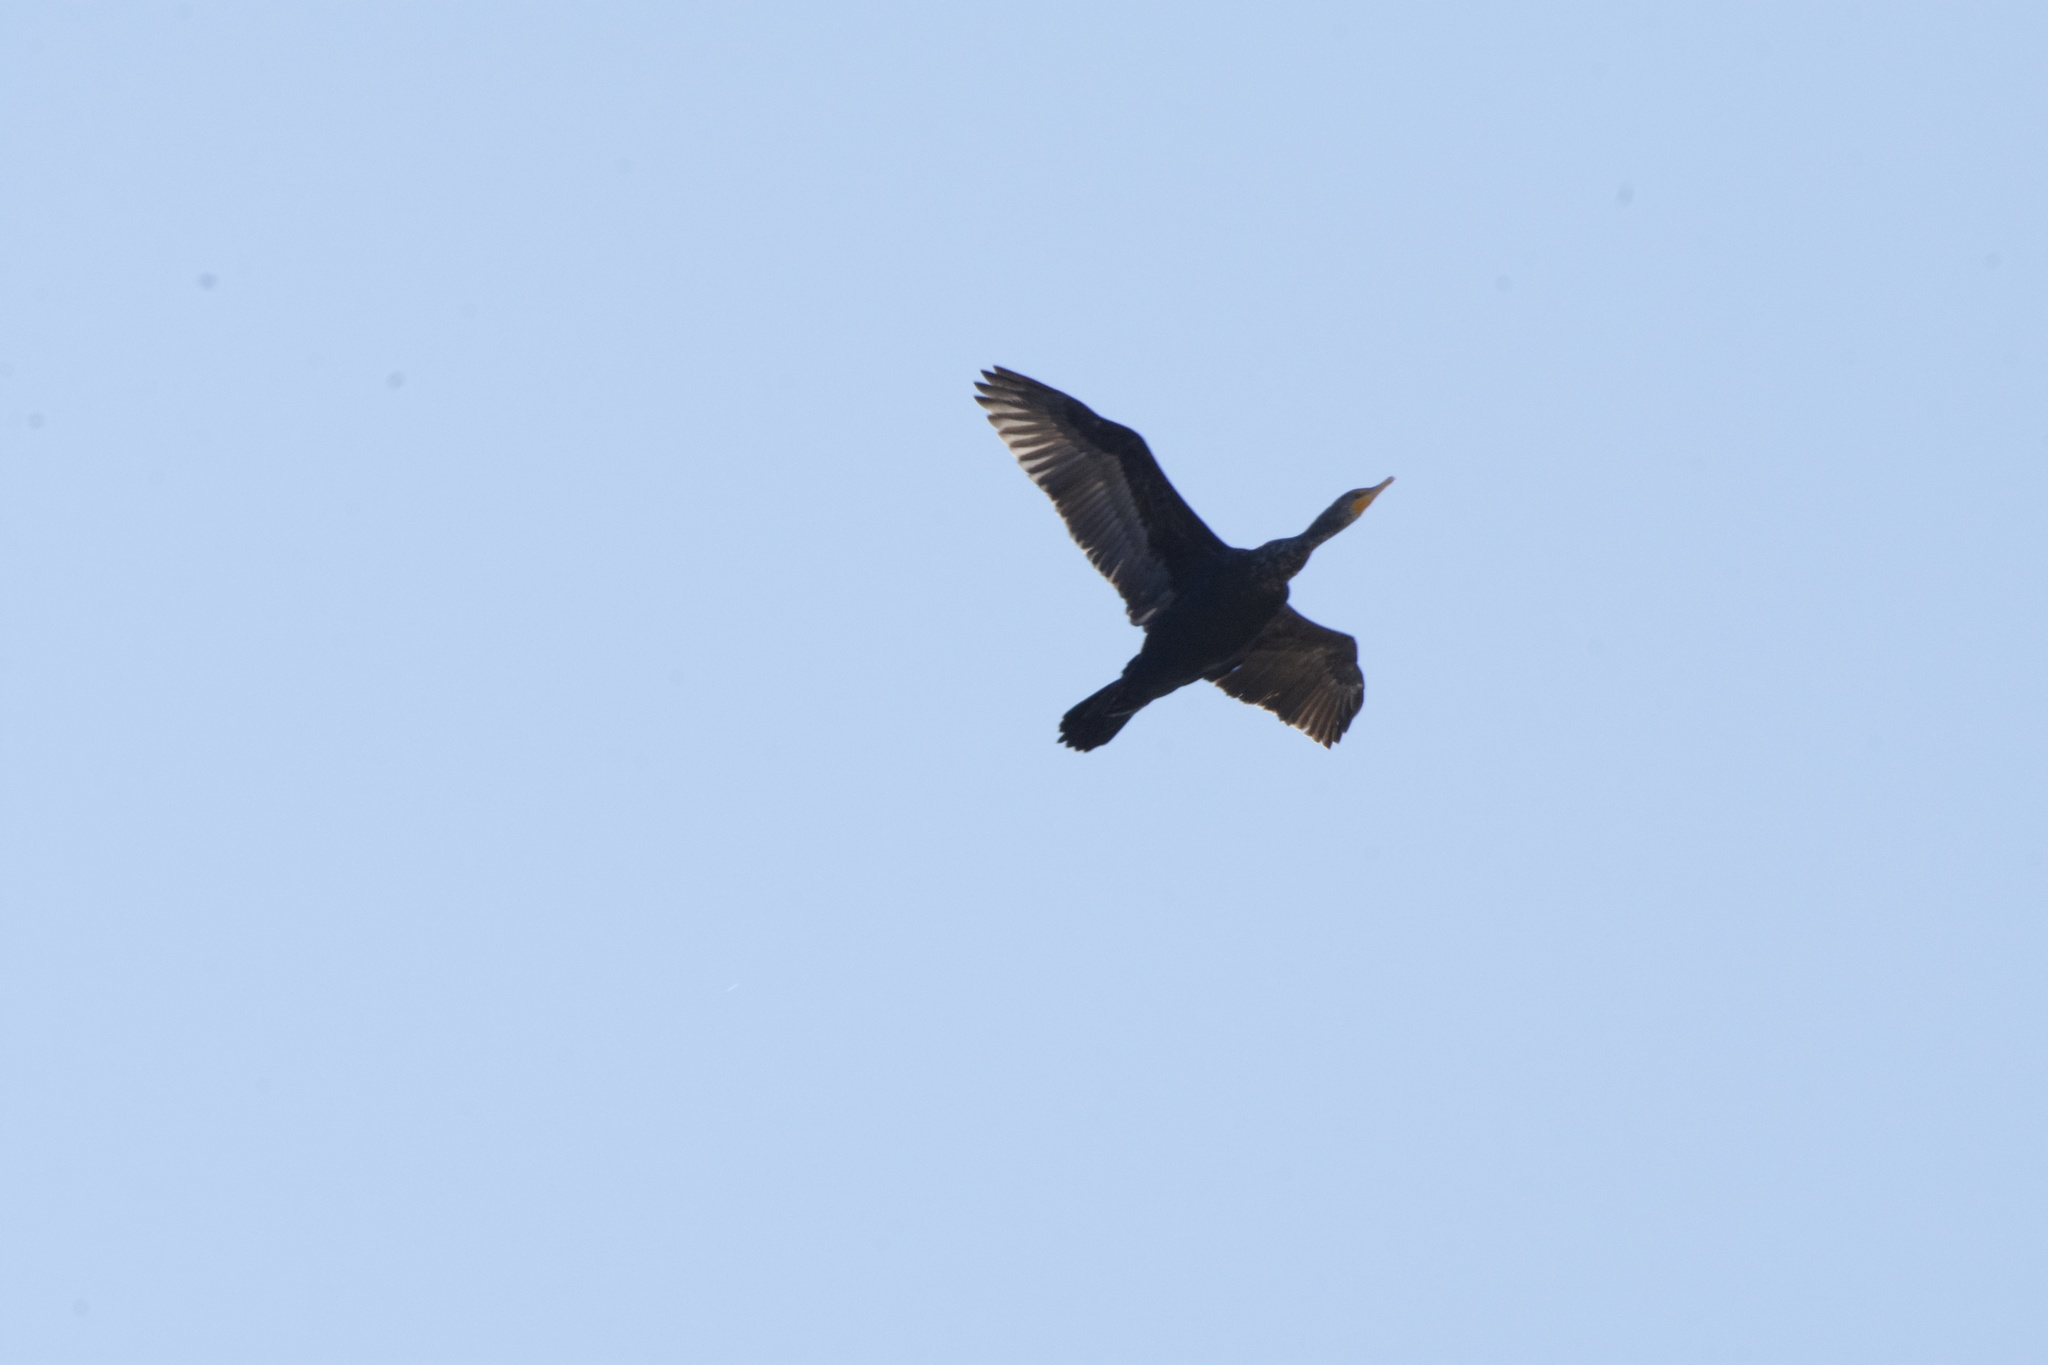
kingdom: Animalia
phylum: Chordata
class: Aves
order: Suliformes
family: Phalacrocoracidae
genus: Phalacrocorax
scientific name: Phalacrocorax auritus
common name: Double-crested cormorant
